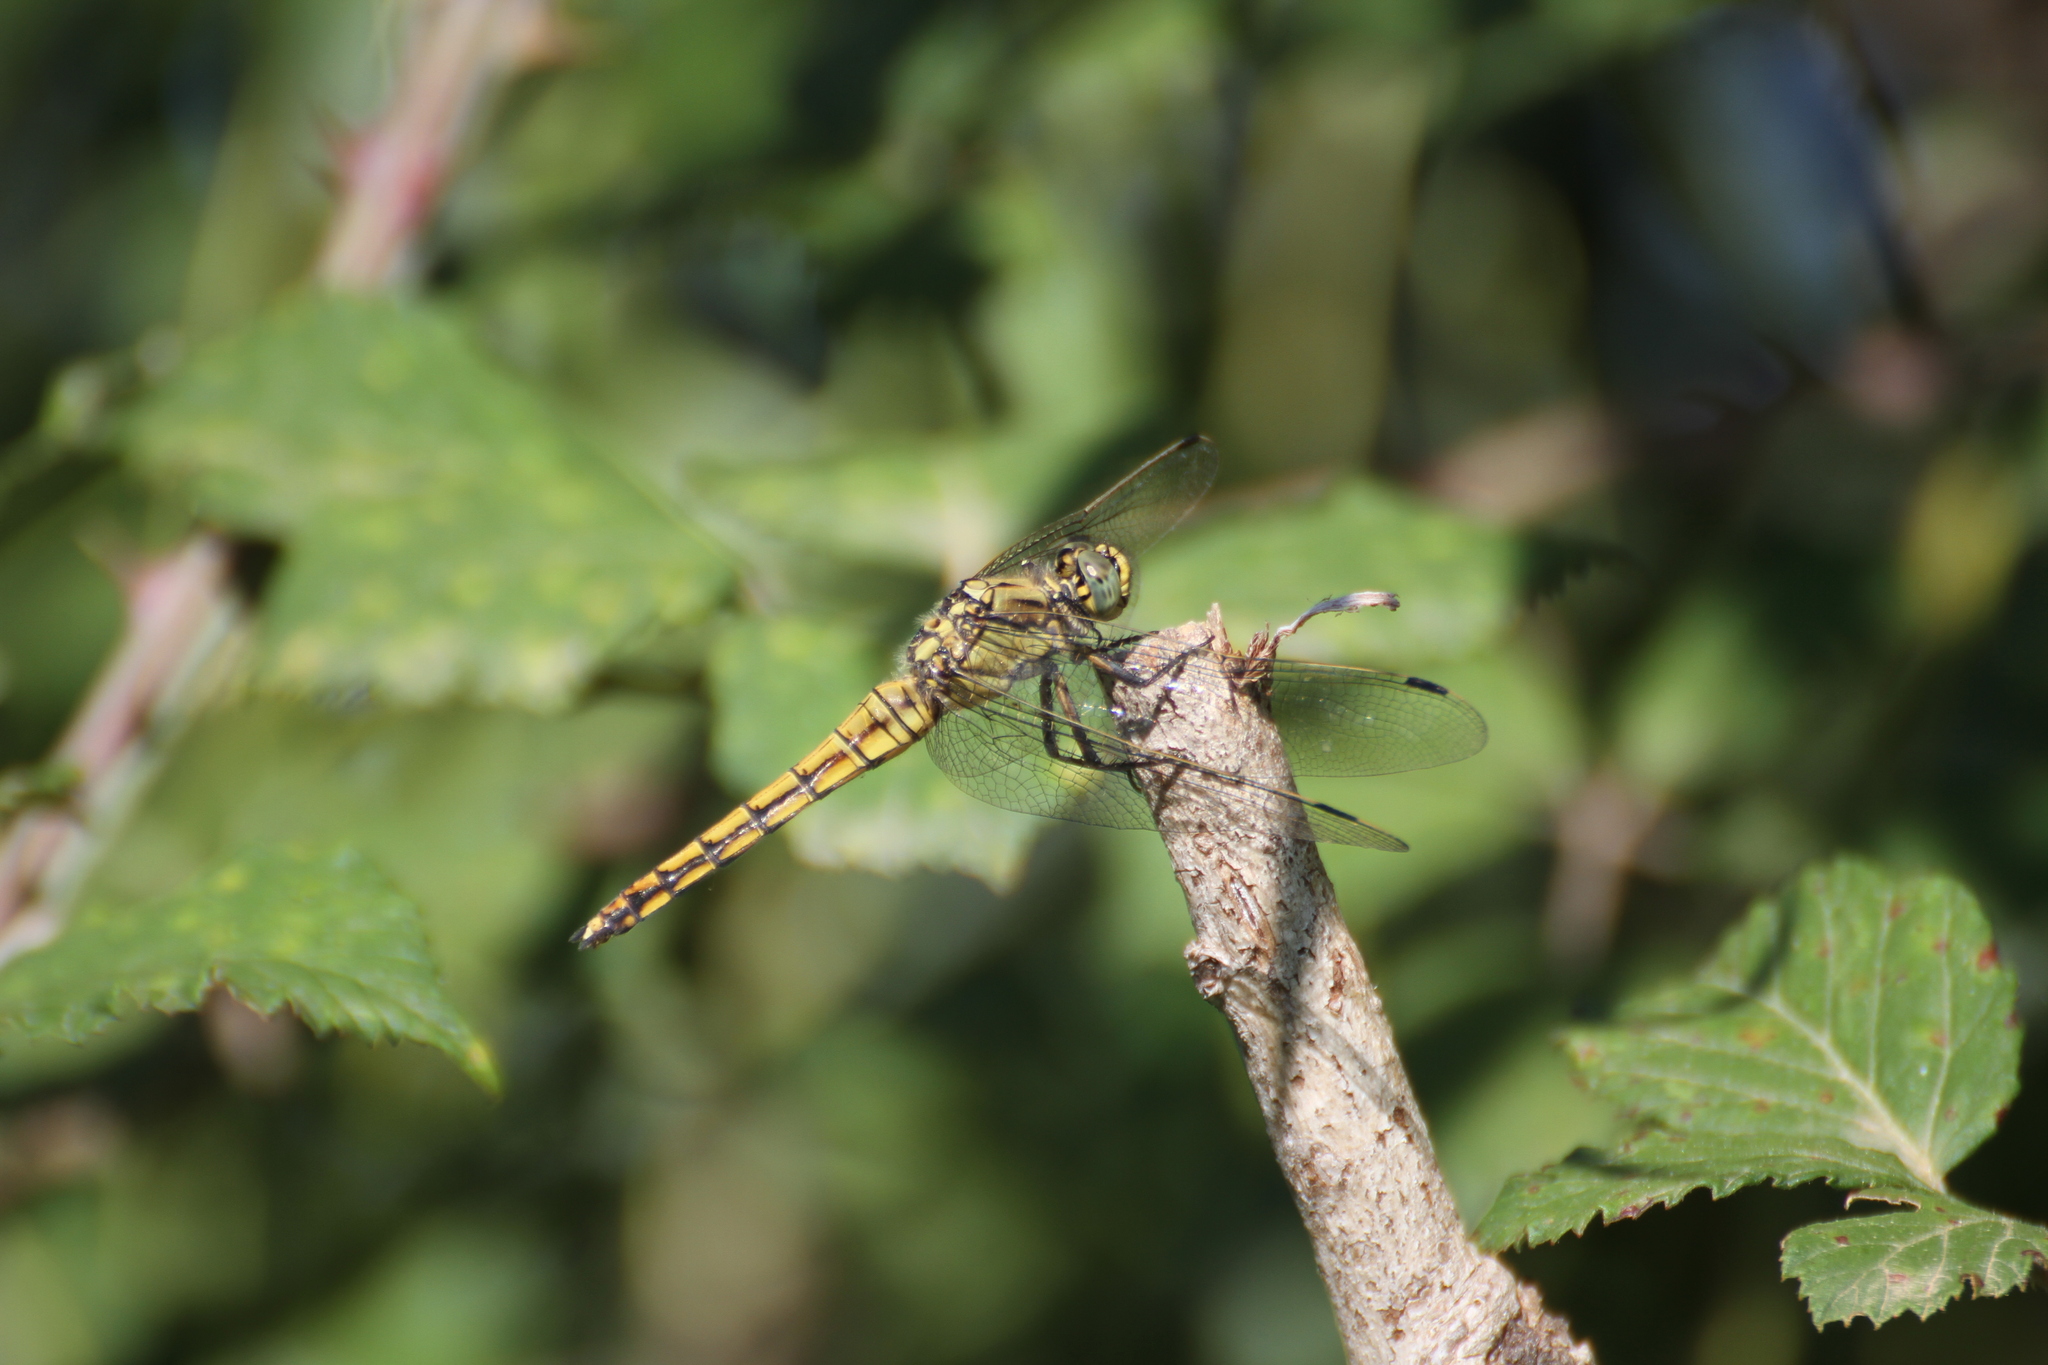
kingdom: Animalia
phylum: Arthropoda
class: Insecta
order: Odonata
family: Libellulidae
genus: Orthetrum
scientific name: Orthetrum cancellatum
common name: Black-tailed skimmer
